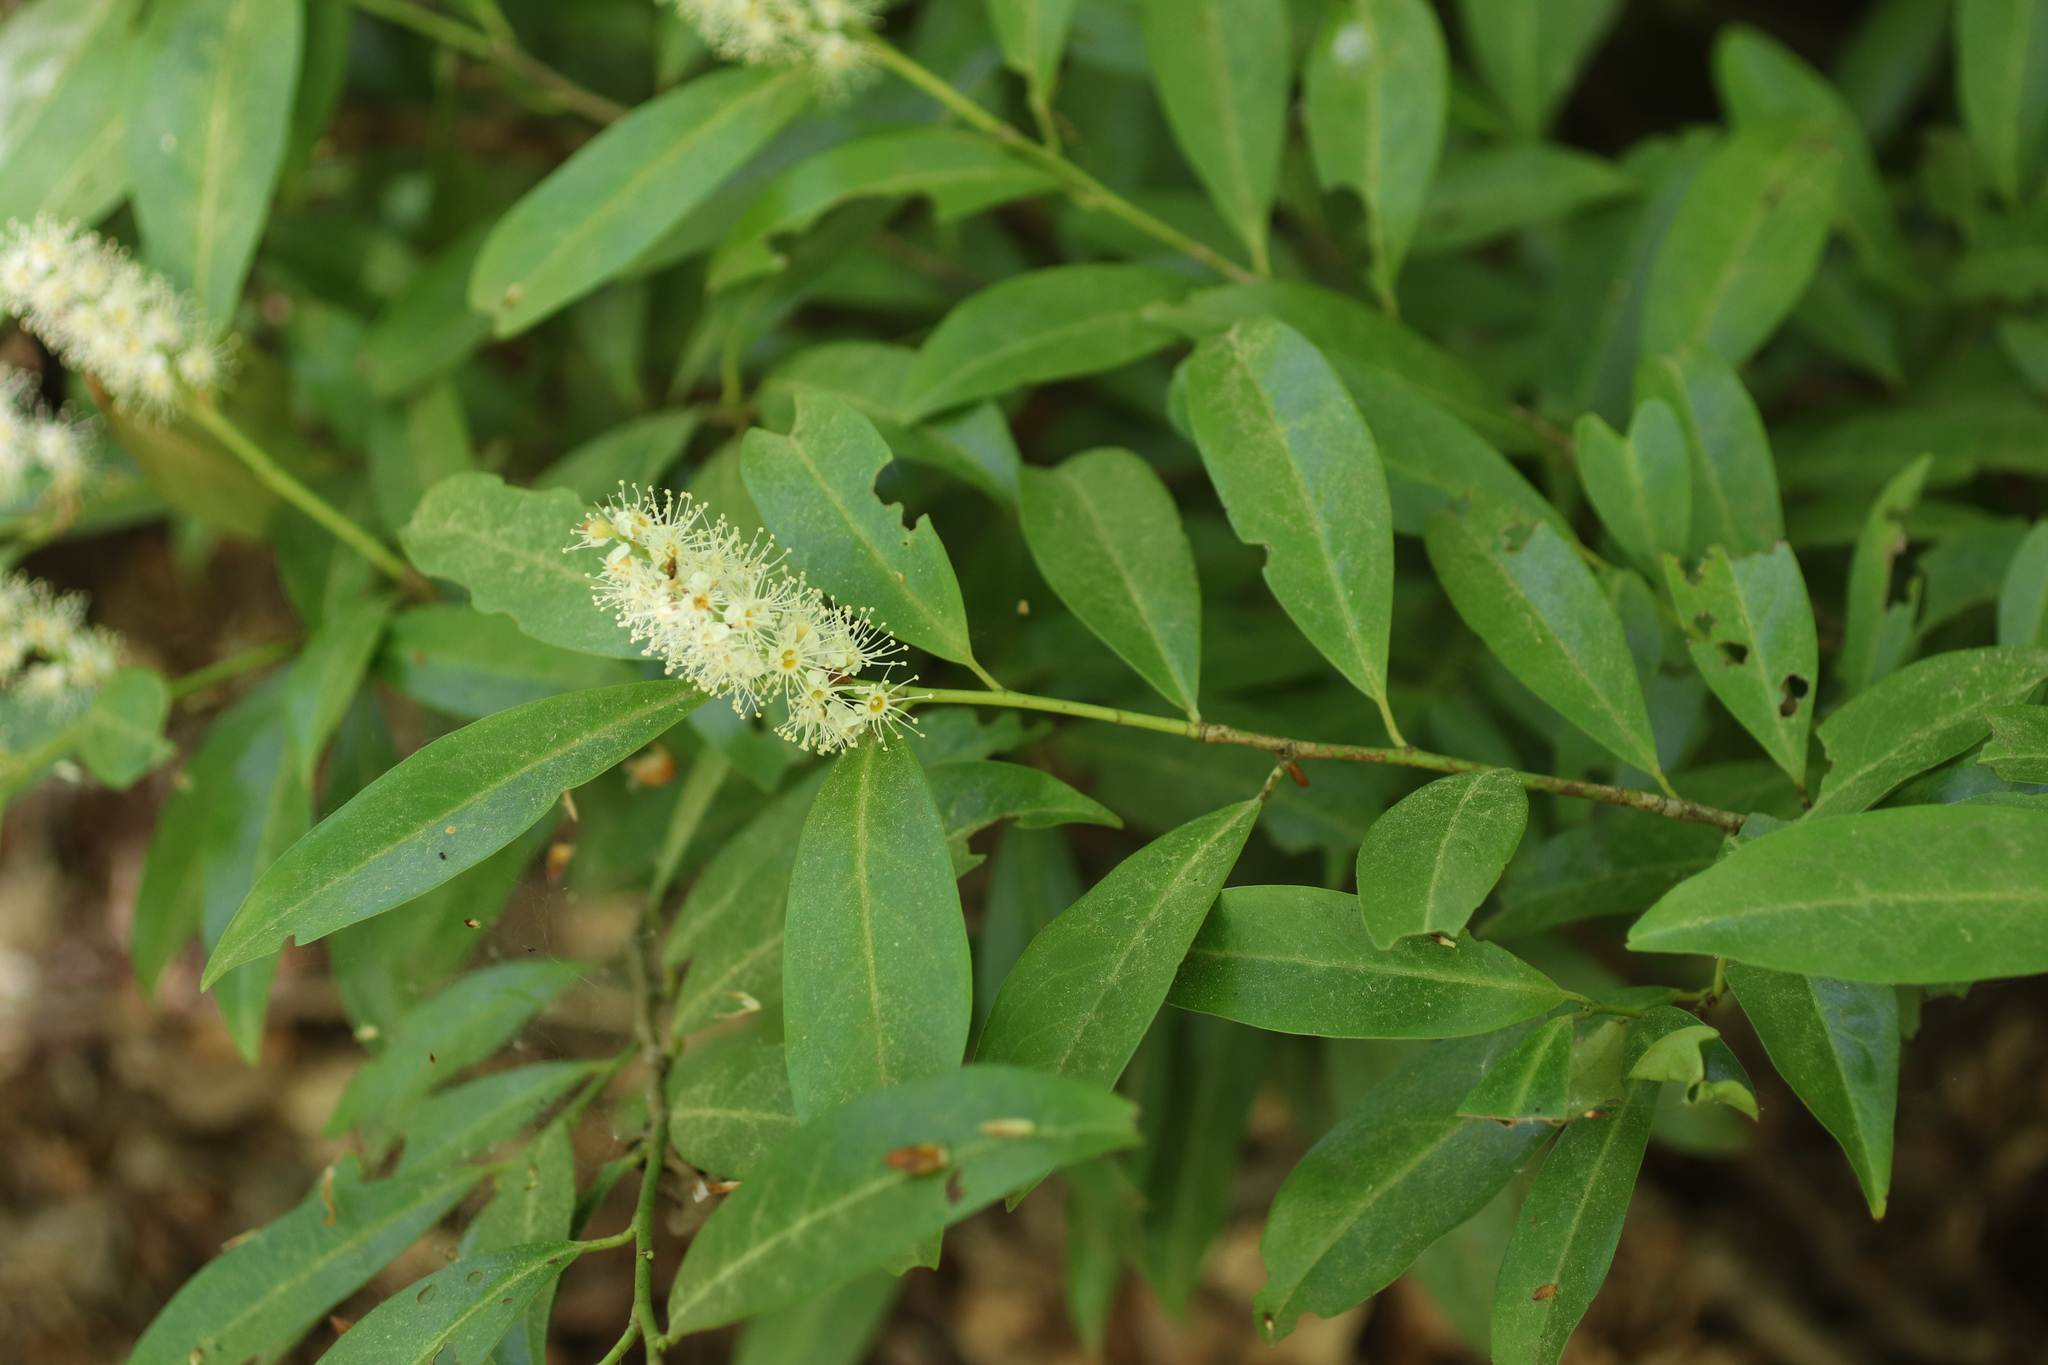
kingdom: Plantae
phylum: Tracheophyta
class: Magnoliopsida
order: Rosales
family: Rosaceae
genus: Prunus
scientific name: Prunus laurocerasus
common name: Cherry laurel
